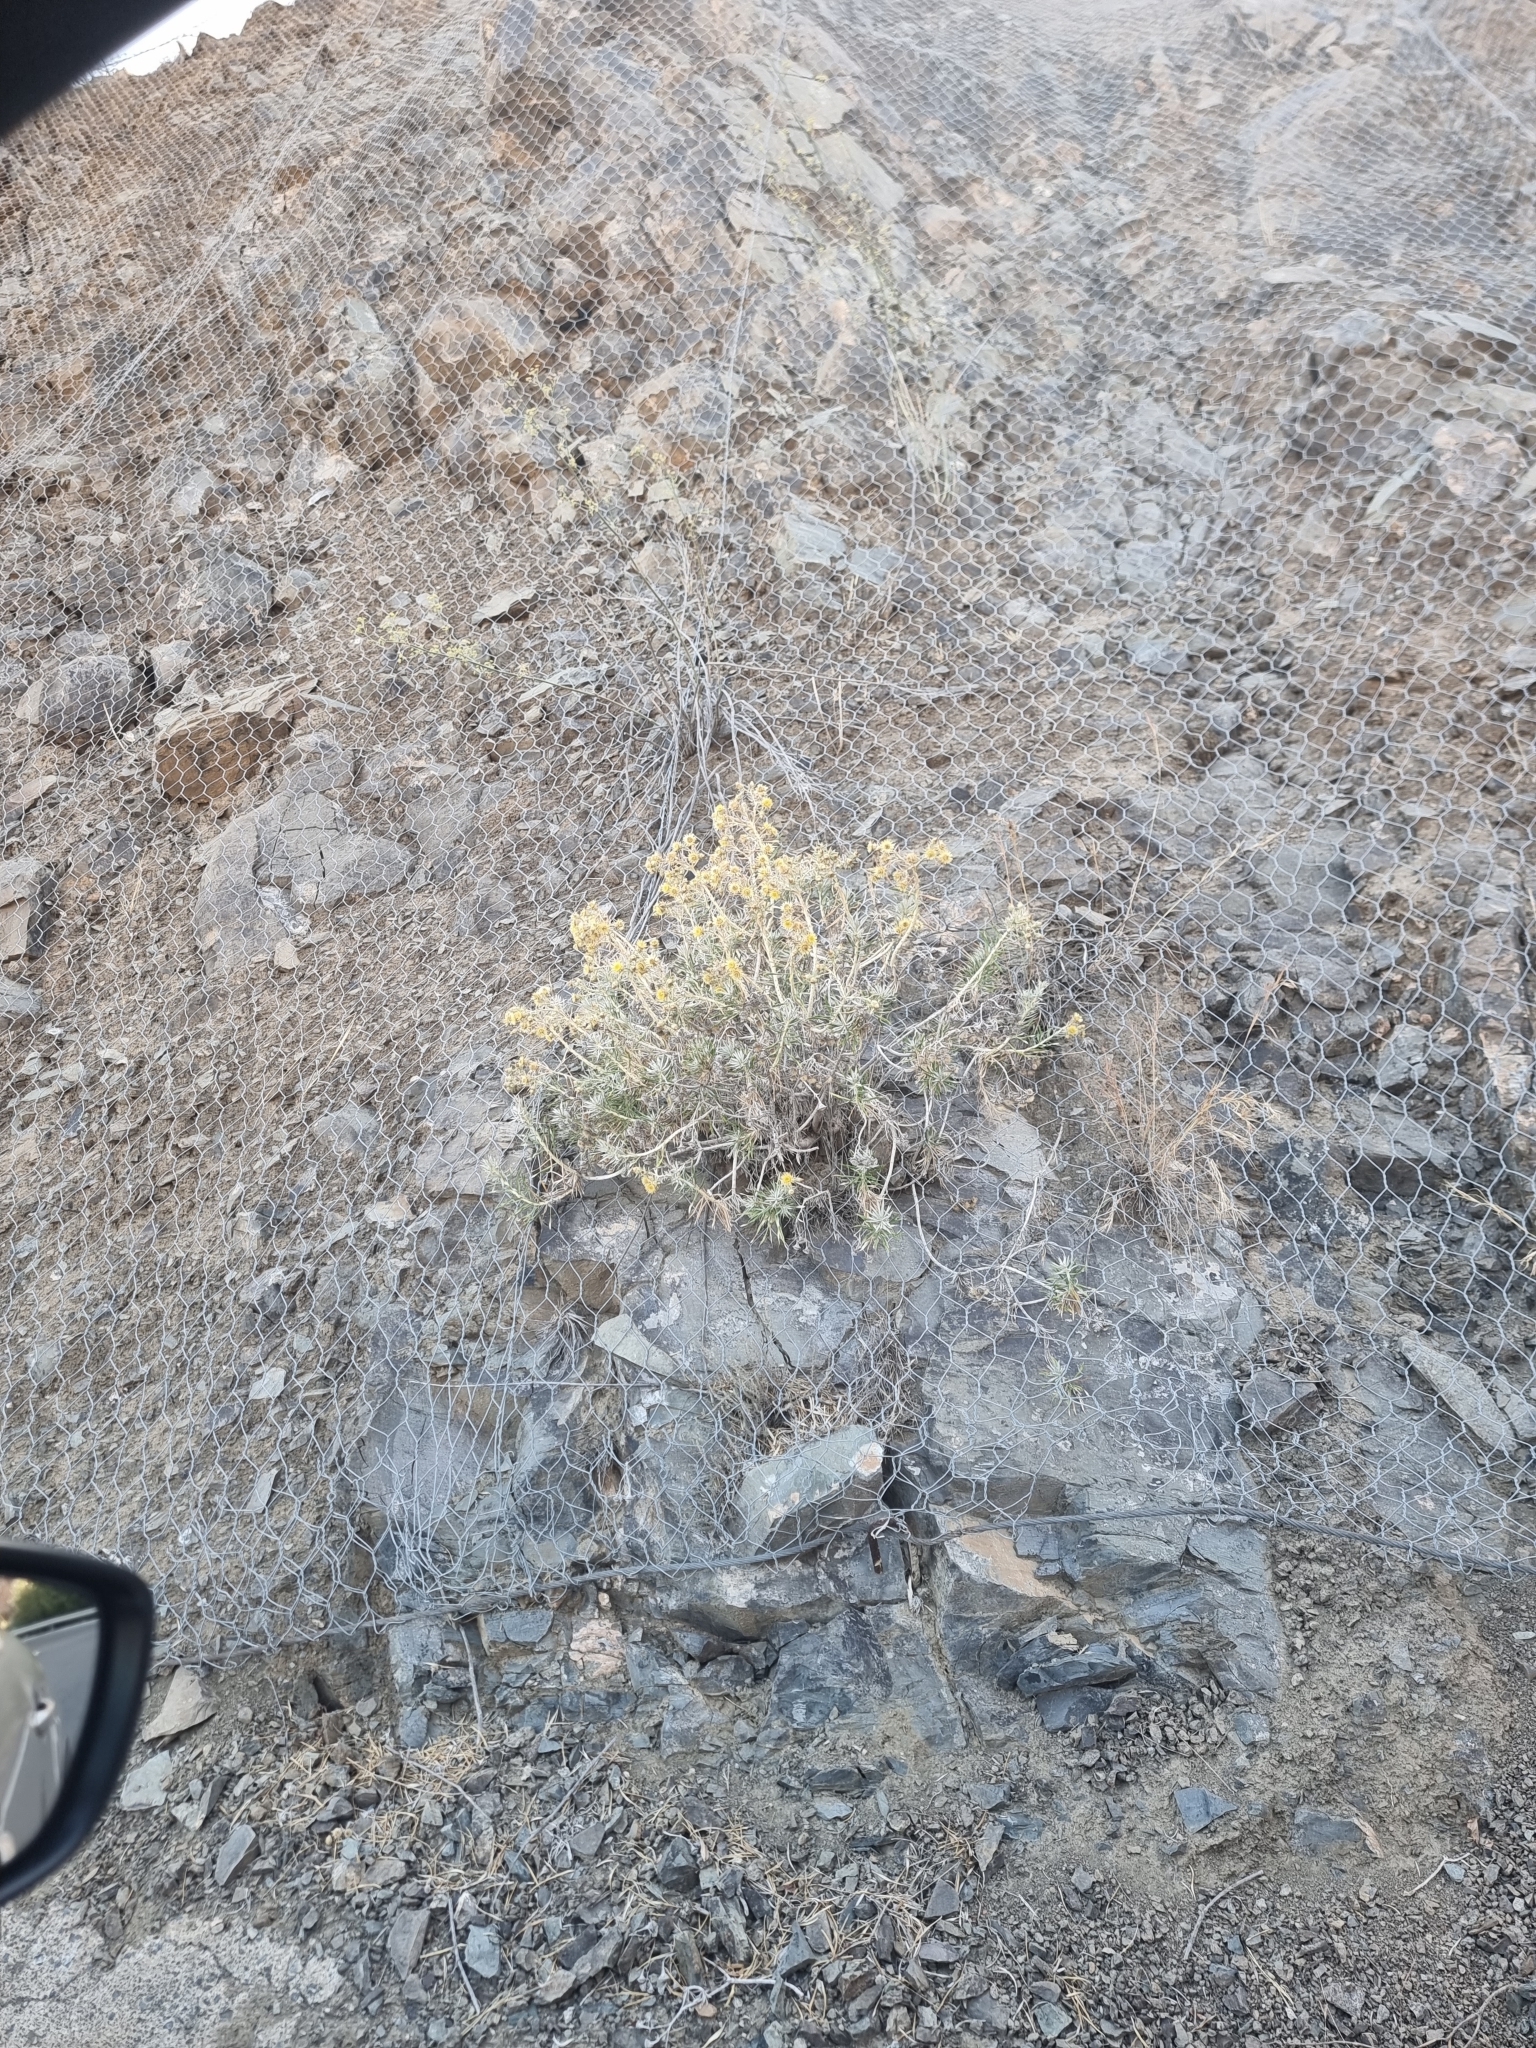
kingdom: Plantae
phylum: Tracheophyta
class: Magnoliopsida
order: Asterales
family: Asteraceae
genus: Carlina
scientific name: Carlina canariensis
